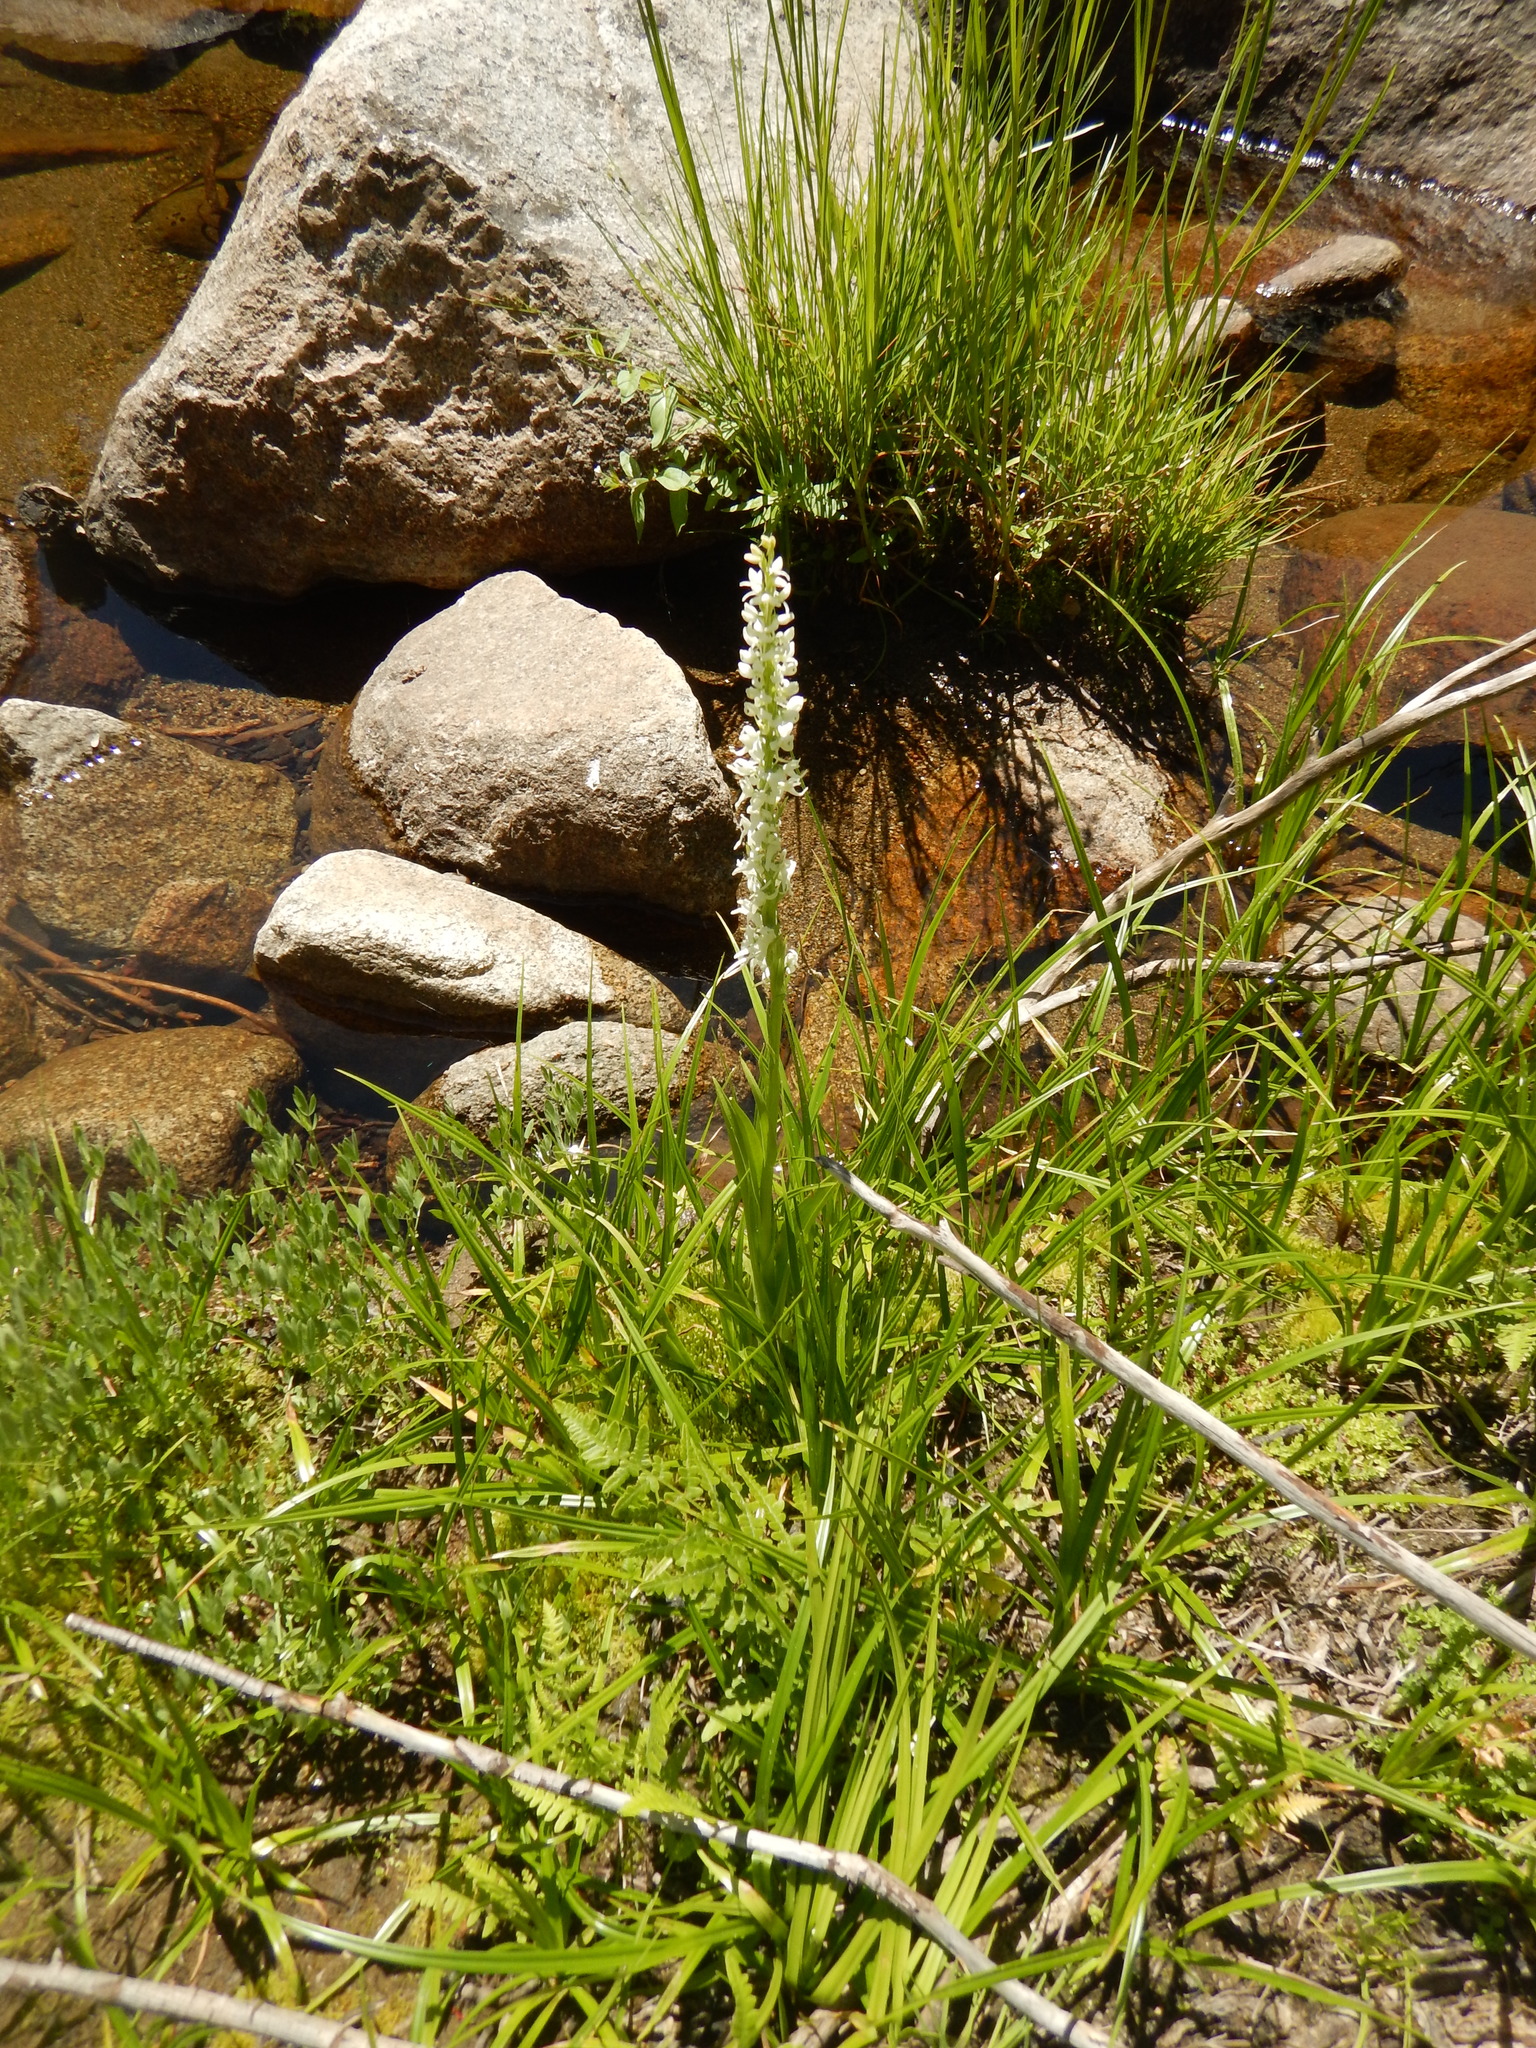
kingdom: Plantae
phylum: Tracheophyta
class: Liliopsida
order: Asparagales
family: Orchidaceae
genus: Platanthera
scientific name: Platanthera dilatata
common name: Bog candles
